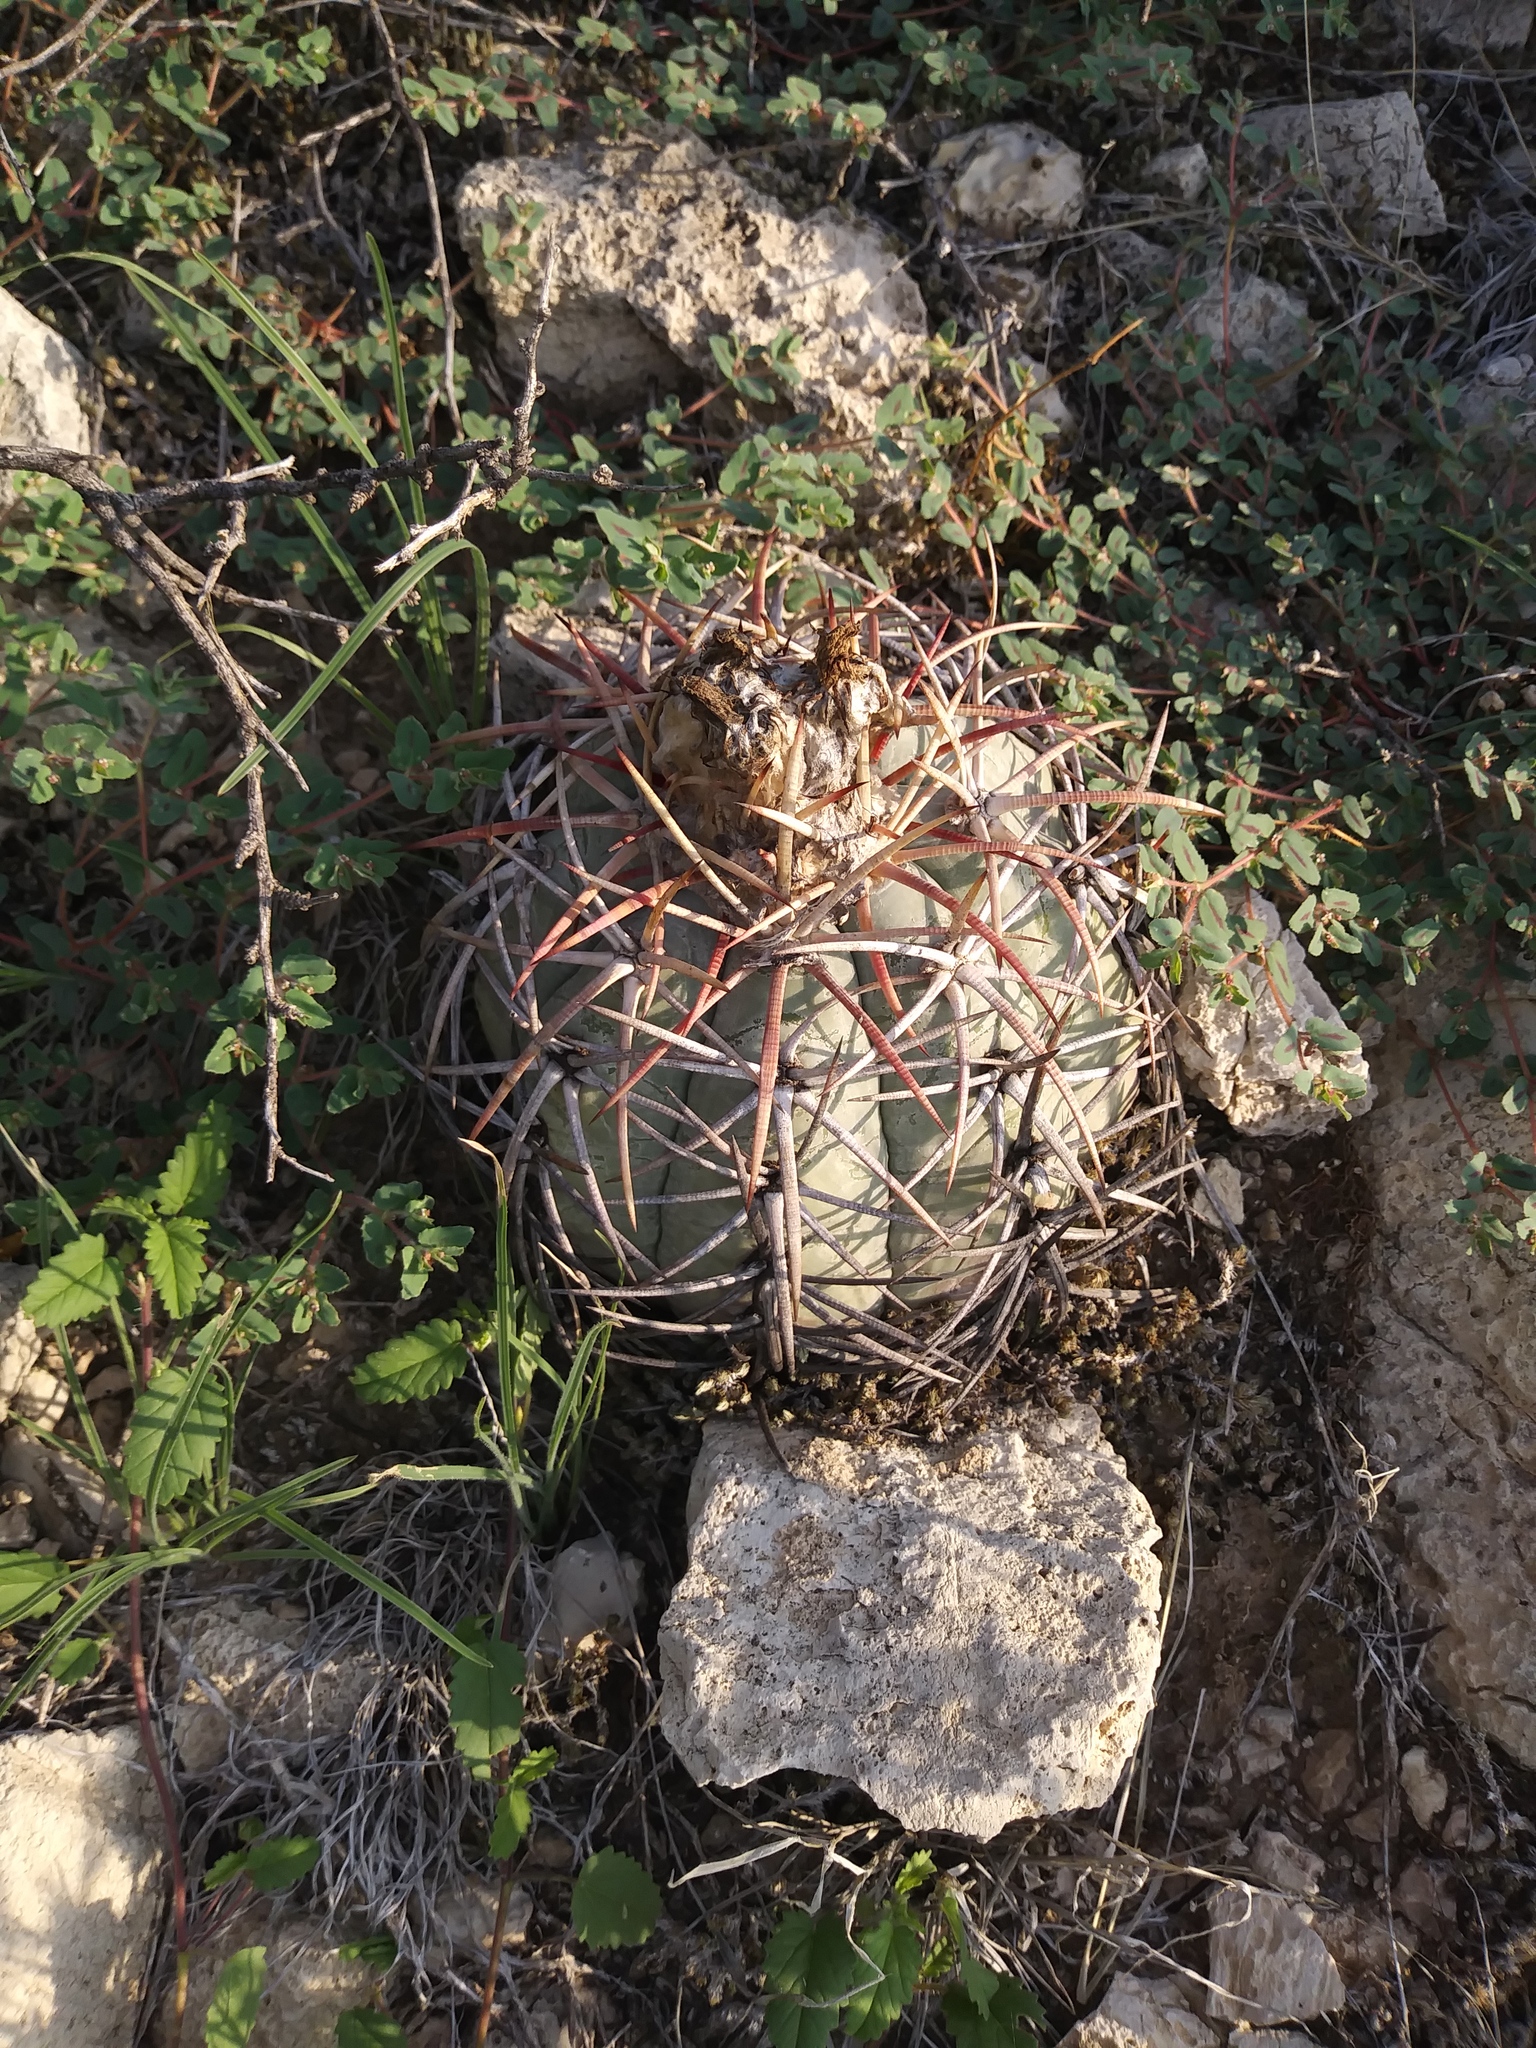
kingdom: Plantae
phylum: Tracheophyta
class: Magnoliopsida
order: Caryophyllales
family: Cactaceae
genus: Echinocactus
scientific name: Echinocactus horizonthalonius
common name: Devilshead
